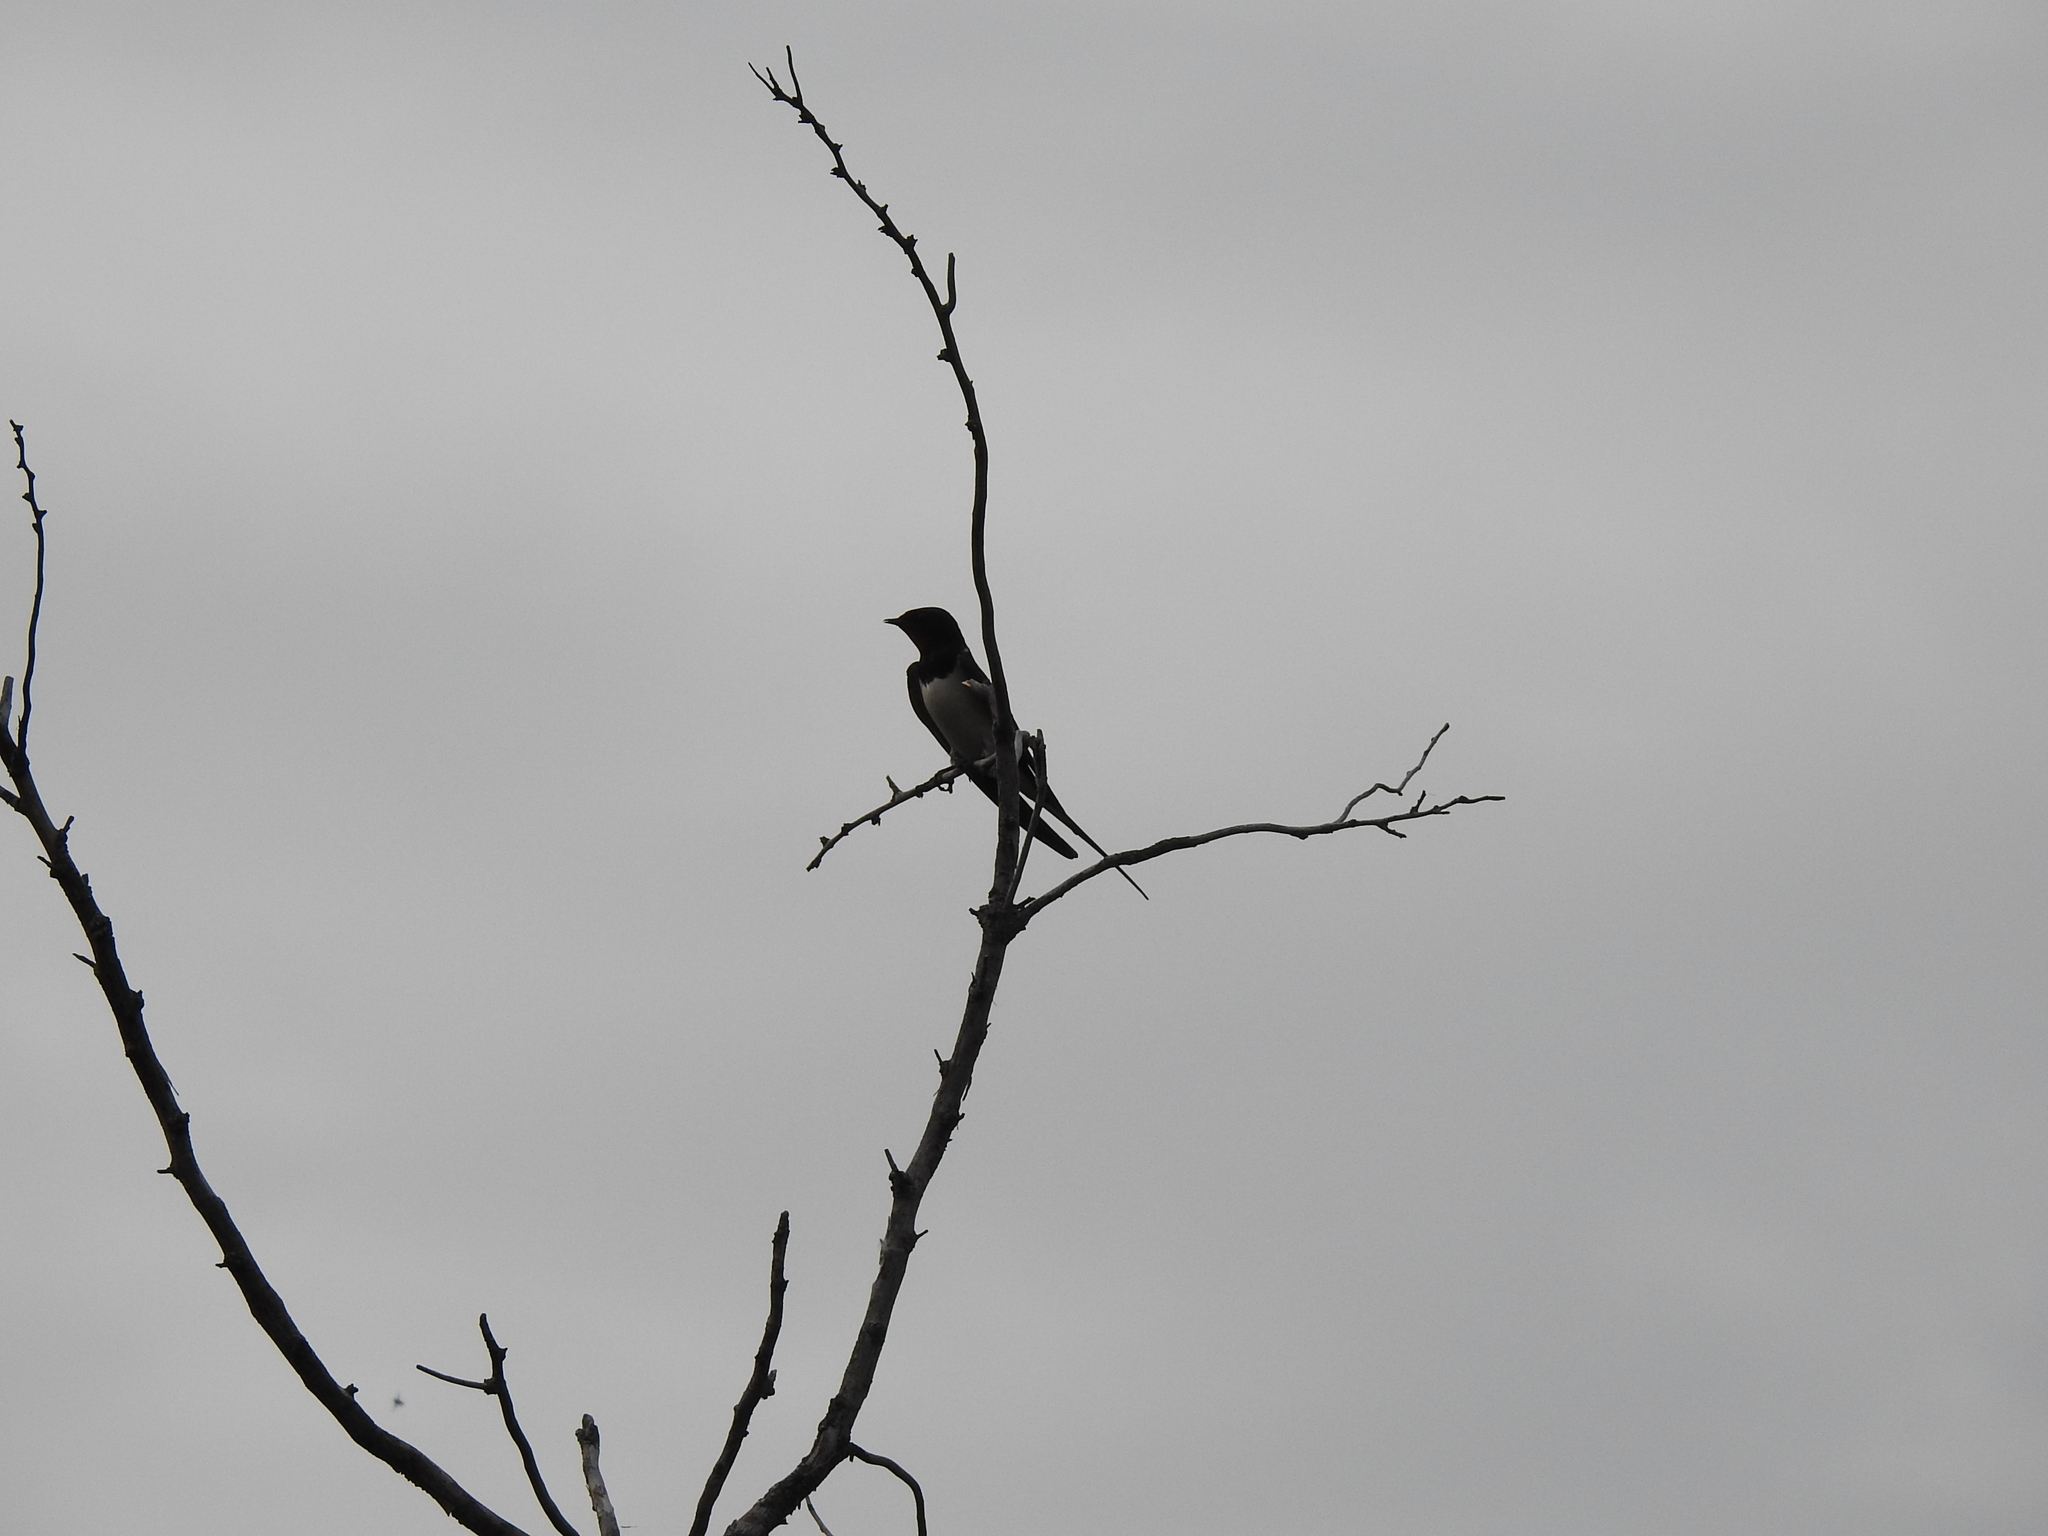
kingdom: Animalia
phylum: Chordata
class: Aves
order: Passeriformes
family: Hirundinidae
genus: Hirundo
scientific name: Hirundo rustica
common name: Barn swallow
